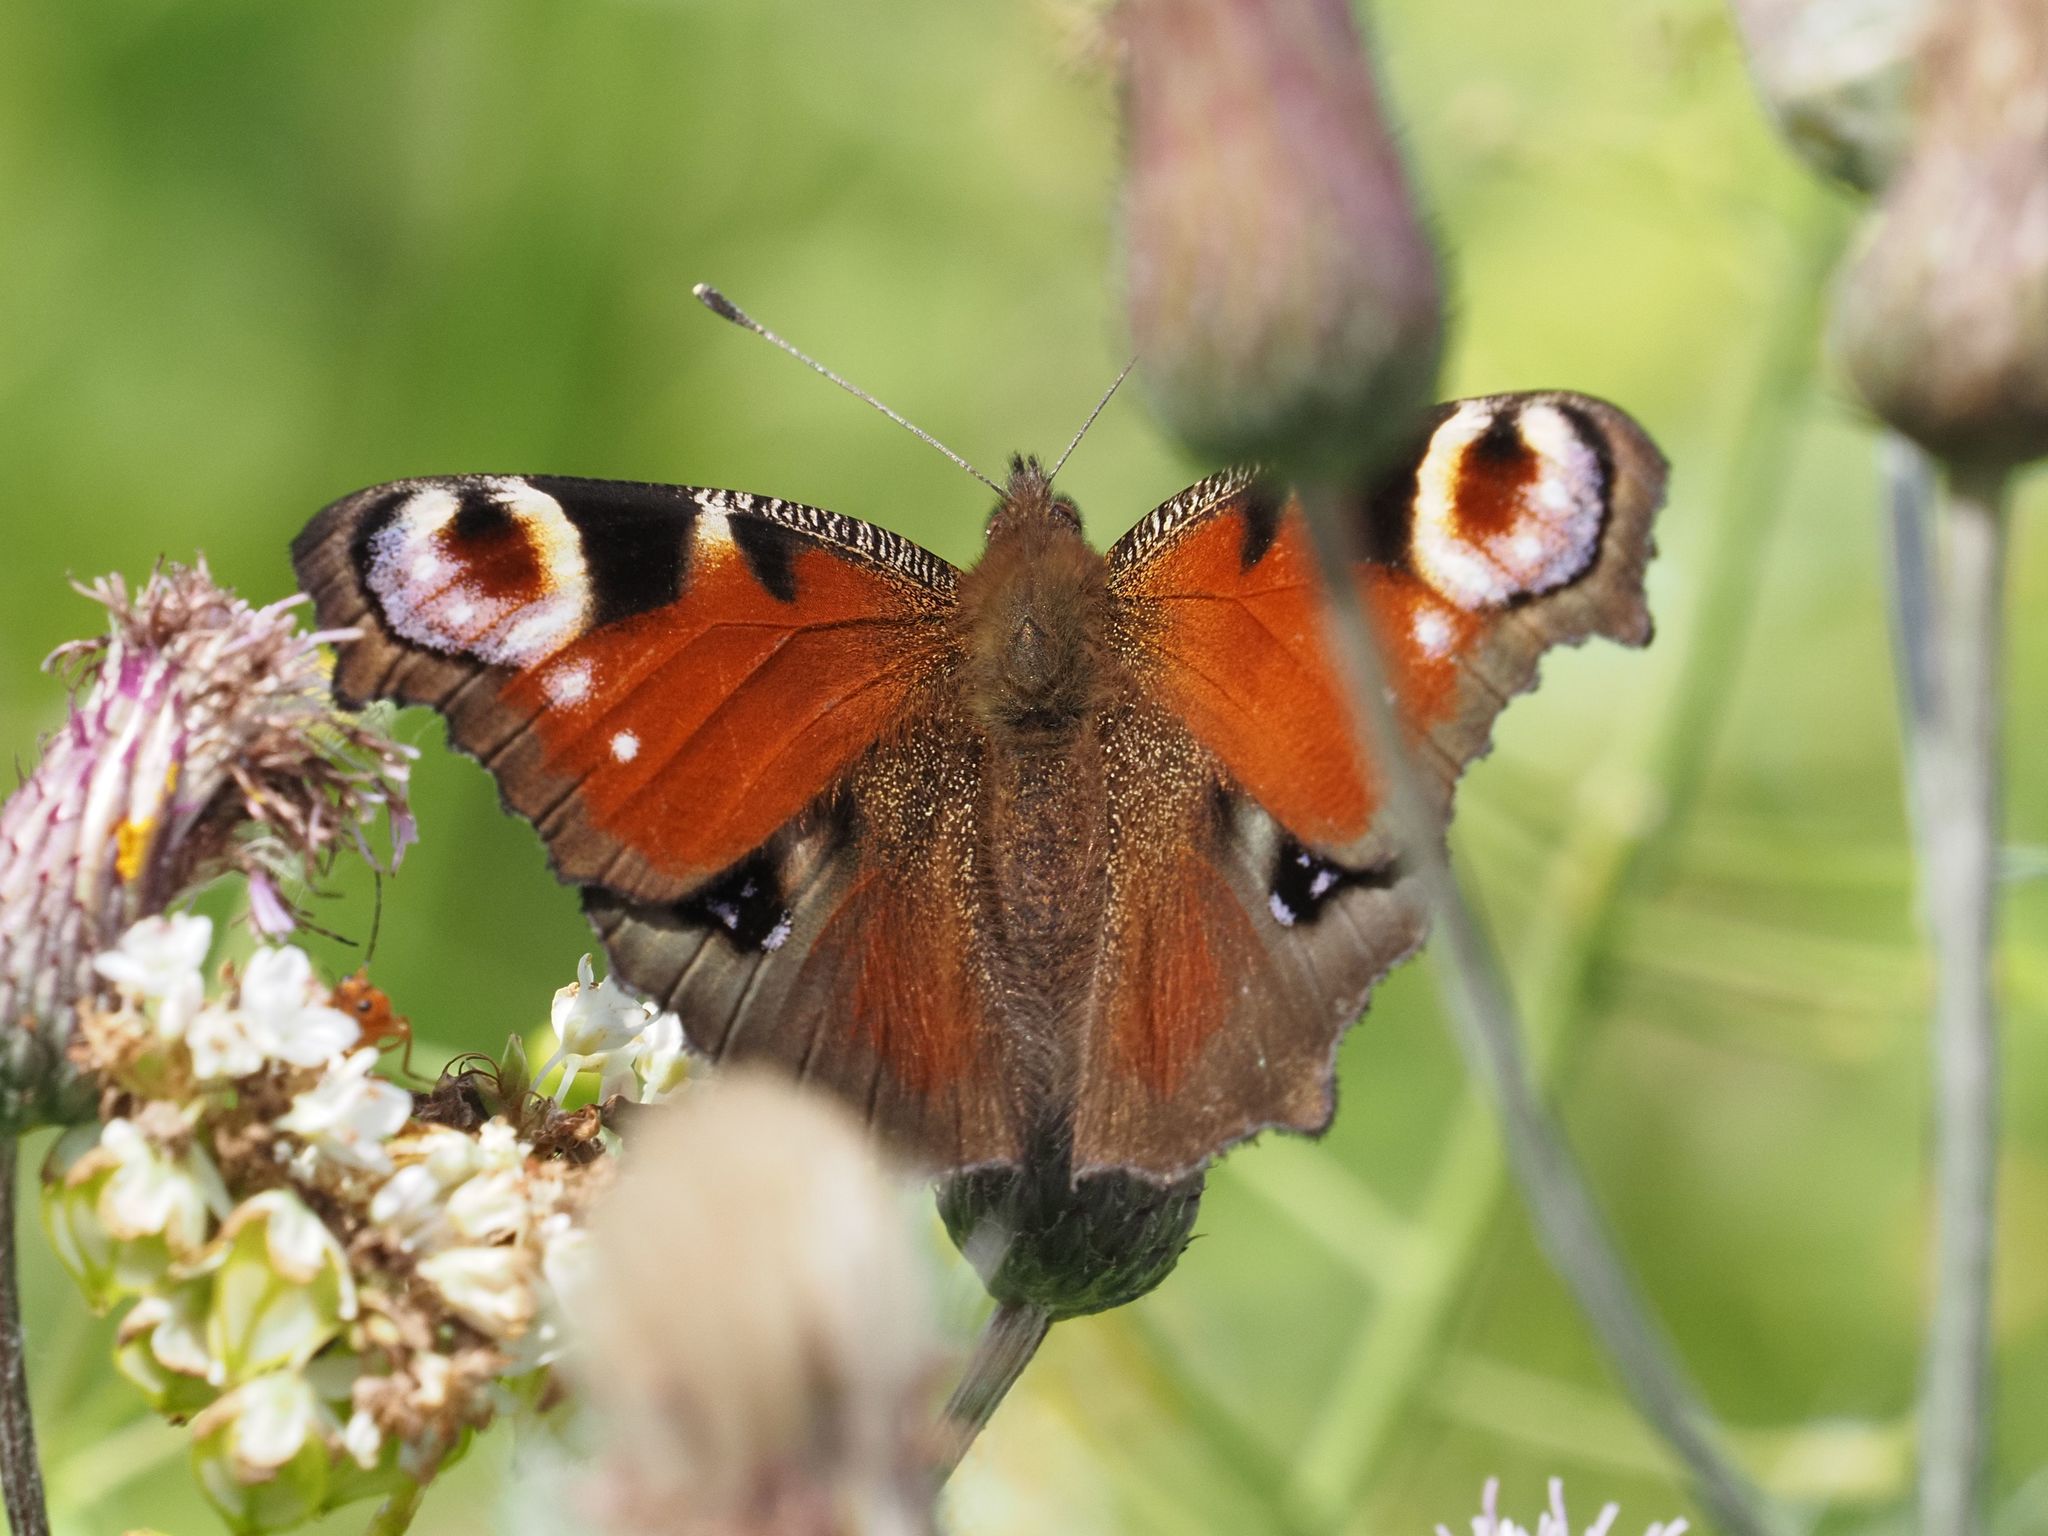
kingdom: Animalia
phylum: Arthropoda
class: Insecta
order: Lepidoptera
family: Nymphalidae
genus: Aglais
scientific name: Aglais io
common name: Peacock
